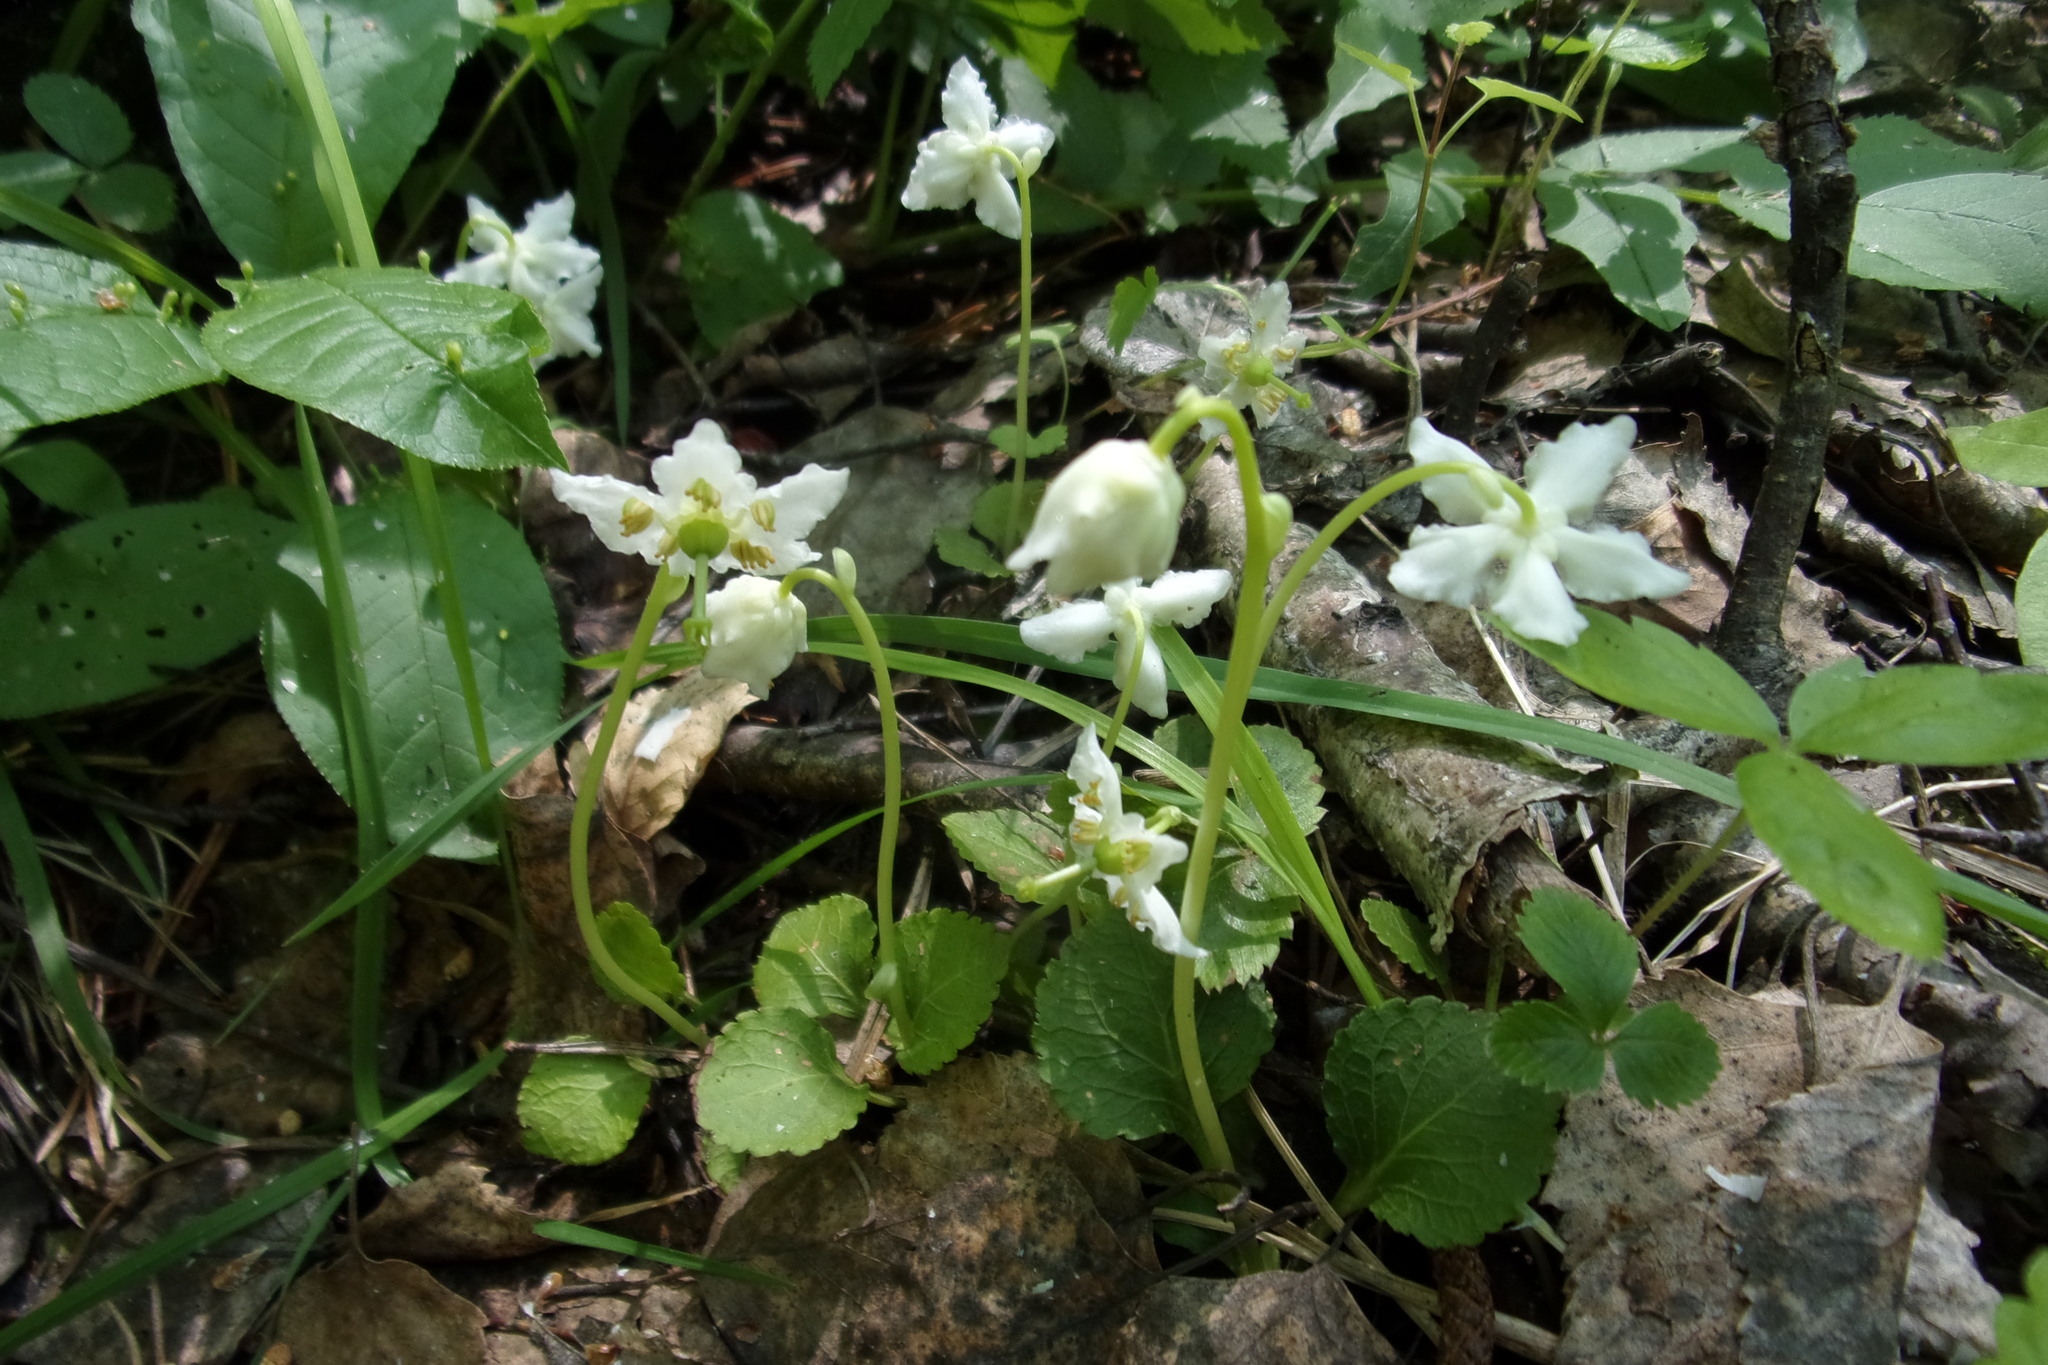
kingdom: Plantae
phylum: Tracheophyta
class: Magnoliopsida
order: Ericales
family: Ericaceae
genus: Moneses
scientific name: Moneses uniflora
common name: One-flowered wintergreen
